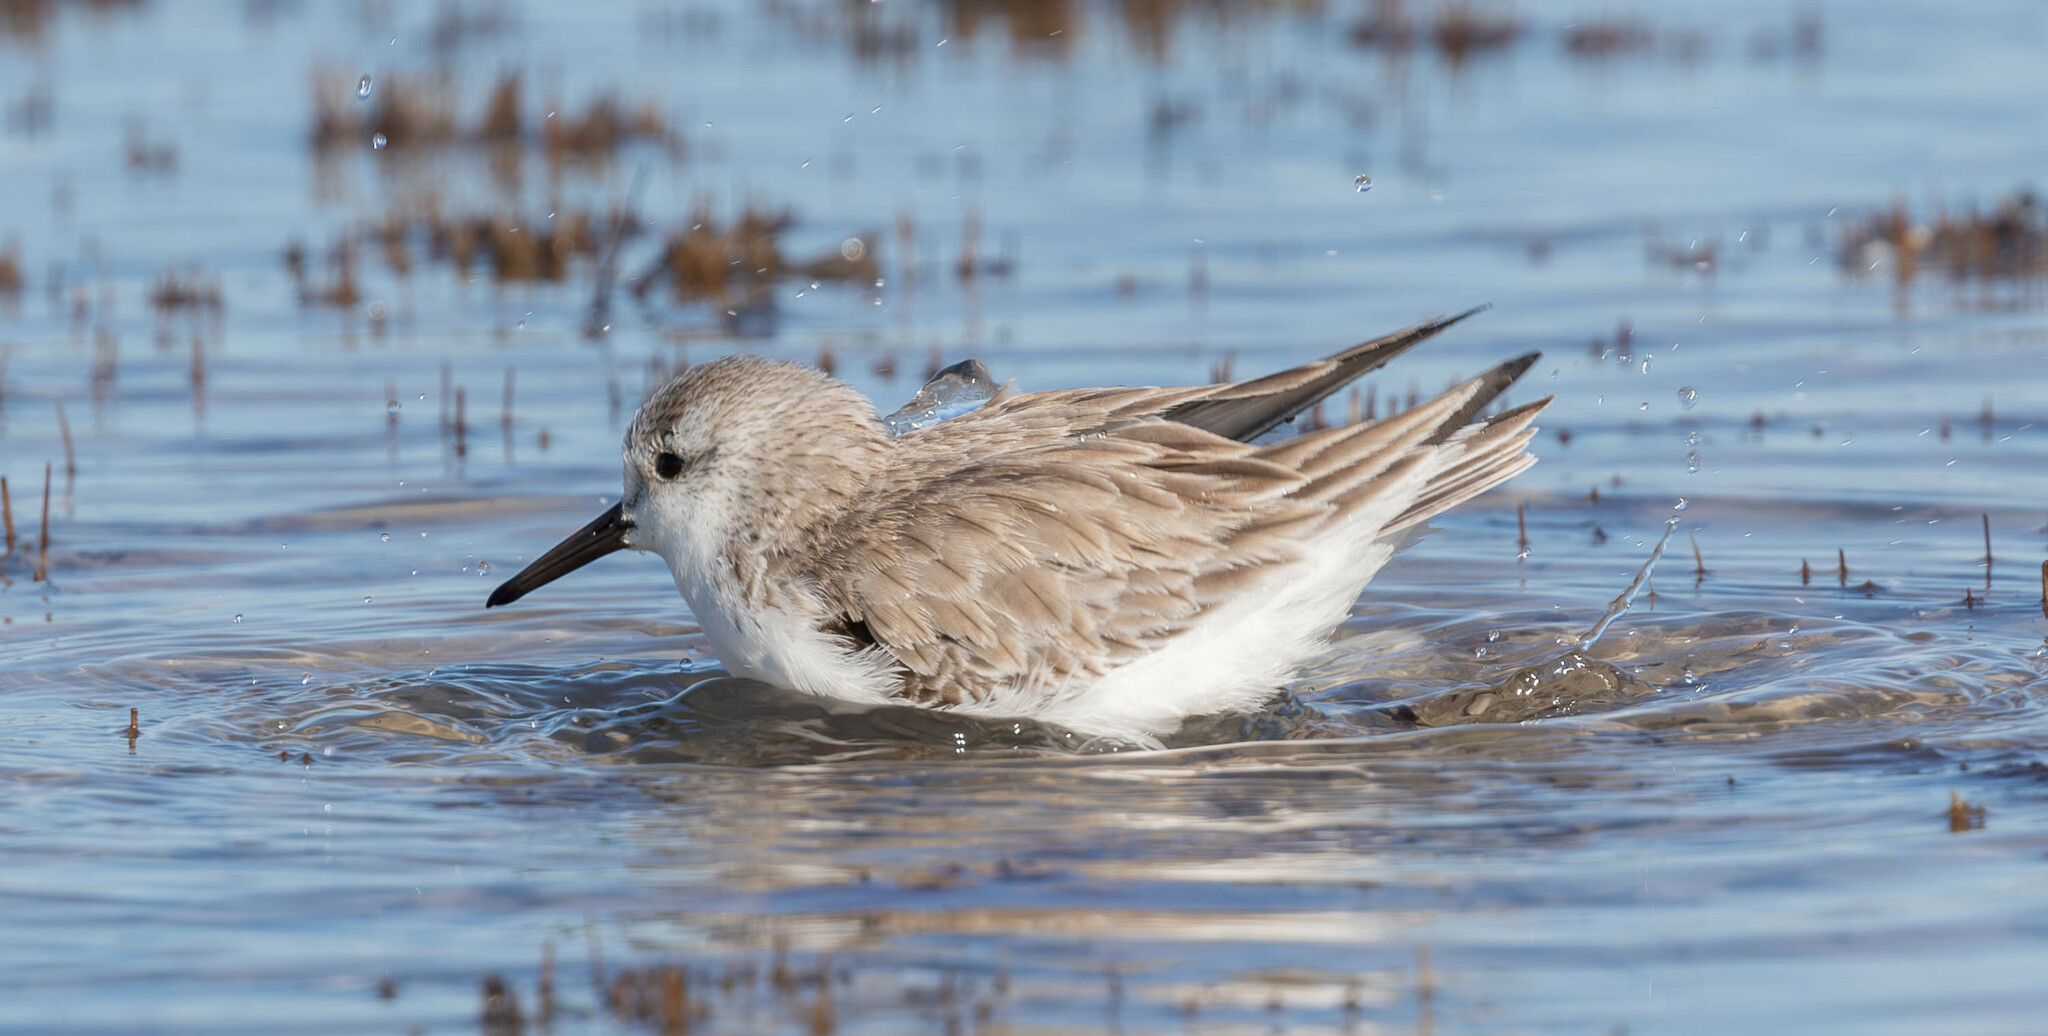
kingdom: Animalia
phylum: Chordata
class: Aves
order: Charadriiformes
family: Scolopacidae
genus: Calidris
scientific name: Calidris alba
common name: Sanderling
